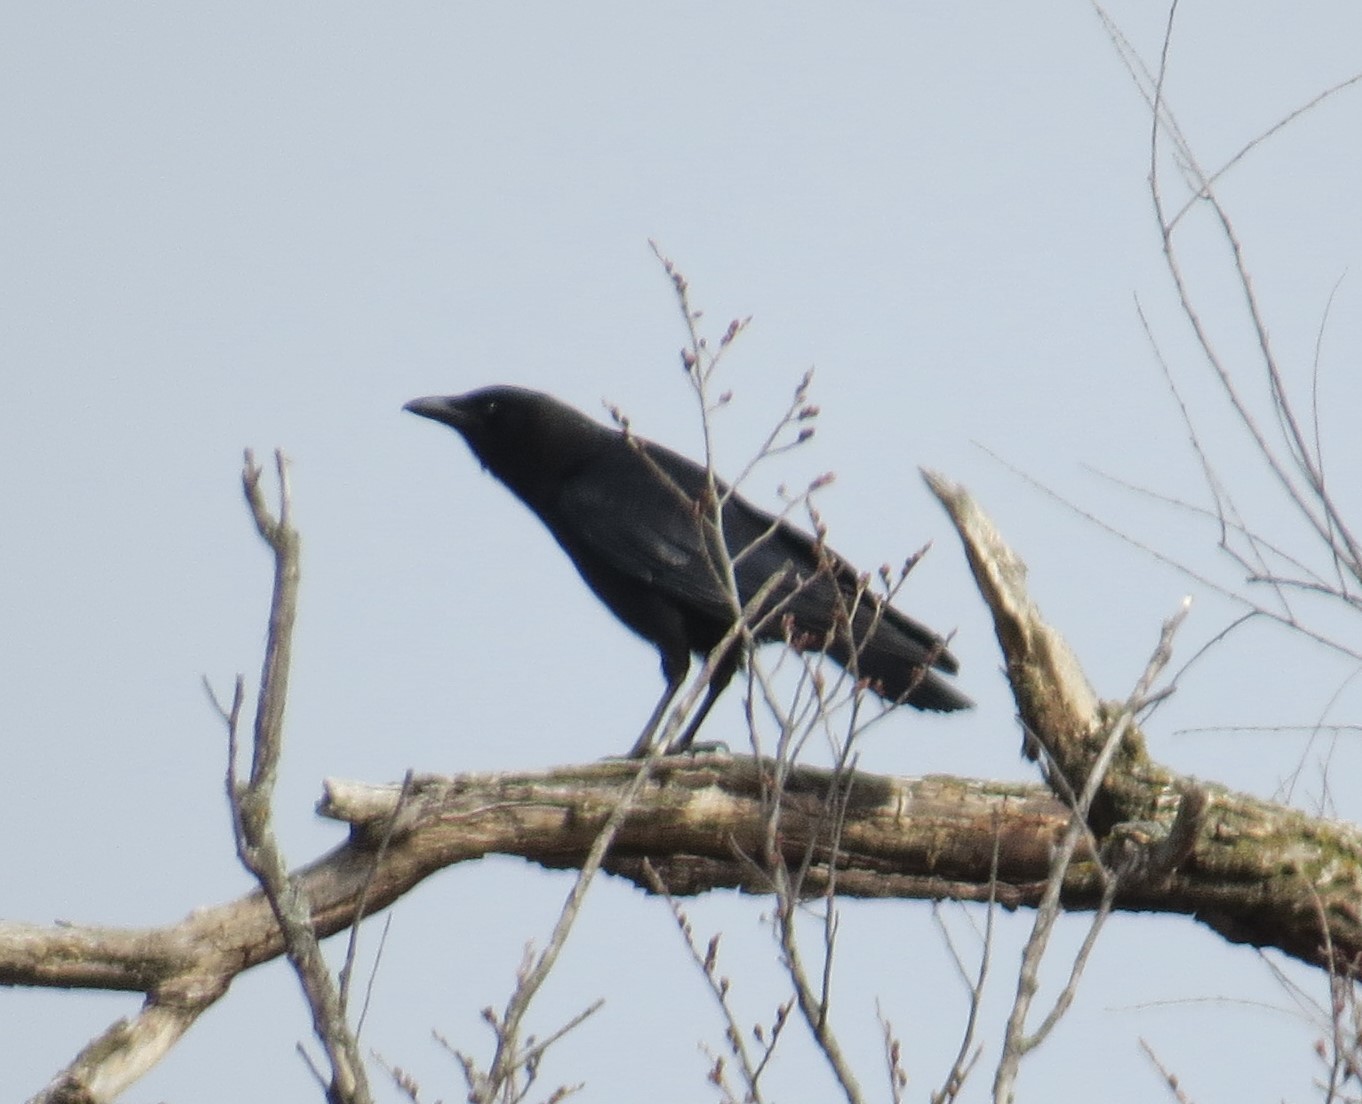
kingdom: Animalia
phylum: Chordata
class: Aves
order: Passeriformes
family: Corvidae
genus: Corvus
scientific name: Corvus brachyrhynchos
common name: American crow
